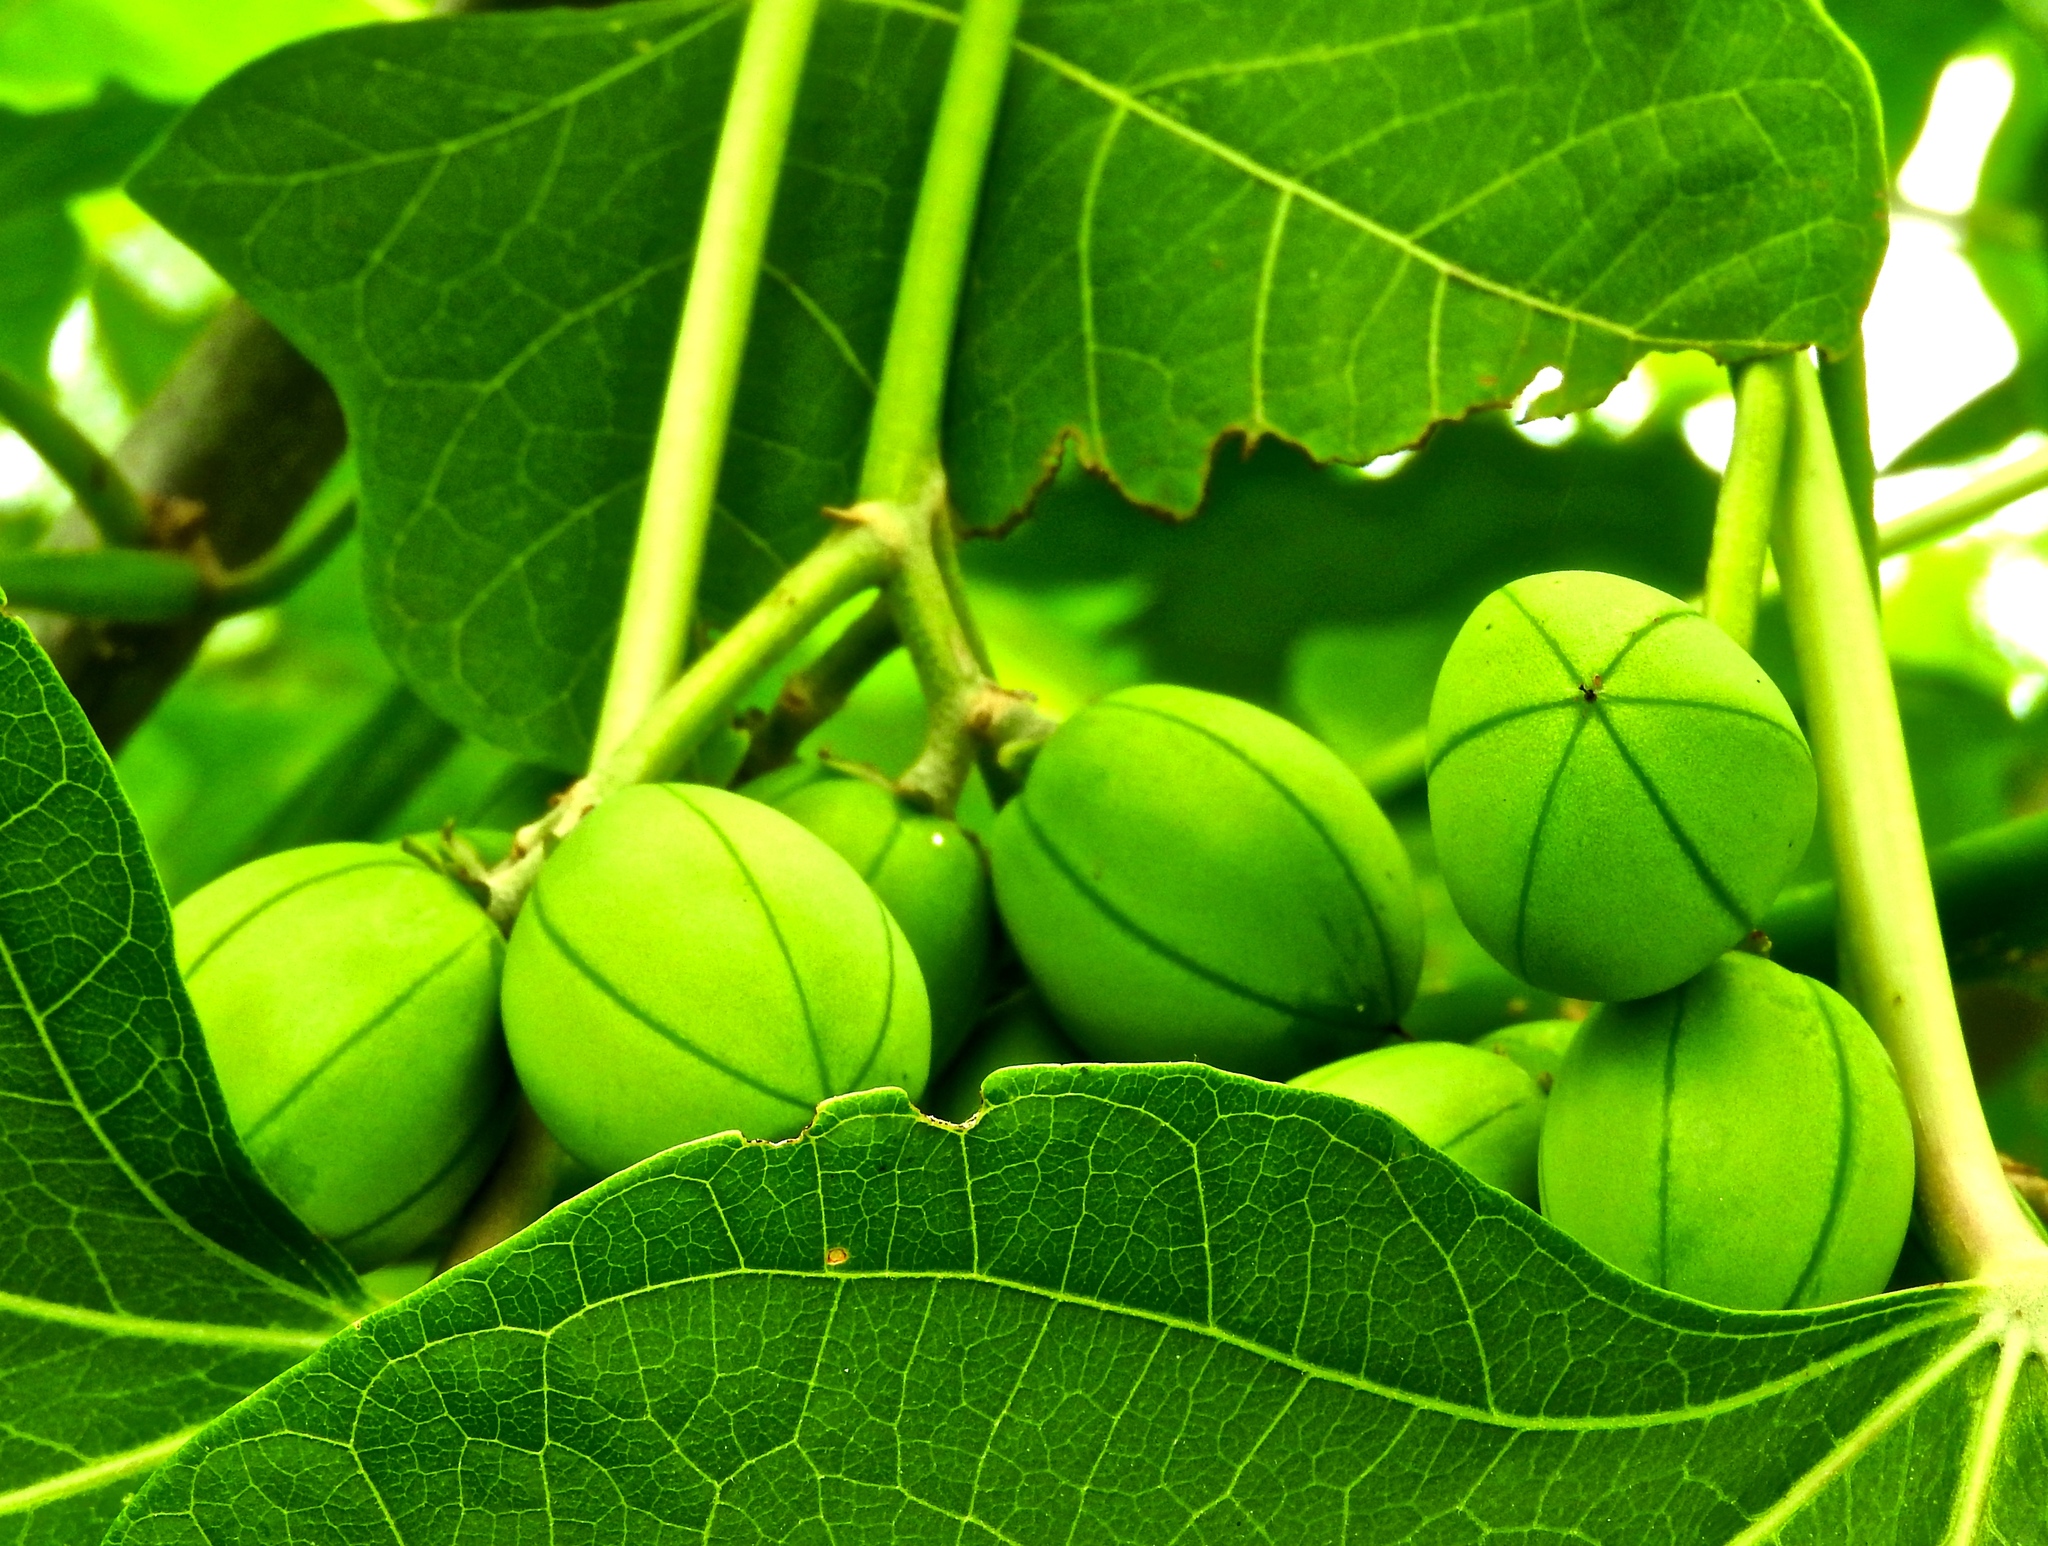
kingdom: Plantae
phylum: Tracheophyta
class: Magnoliopsida
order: Malpighiales
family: Euphorbiaceae
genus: Jatropha
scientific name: Jatropha curcas
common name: Barbados nut
